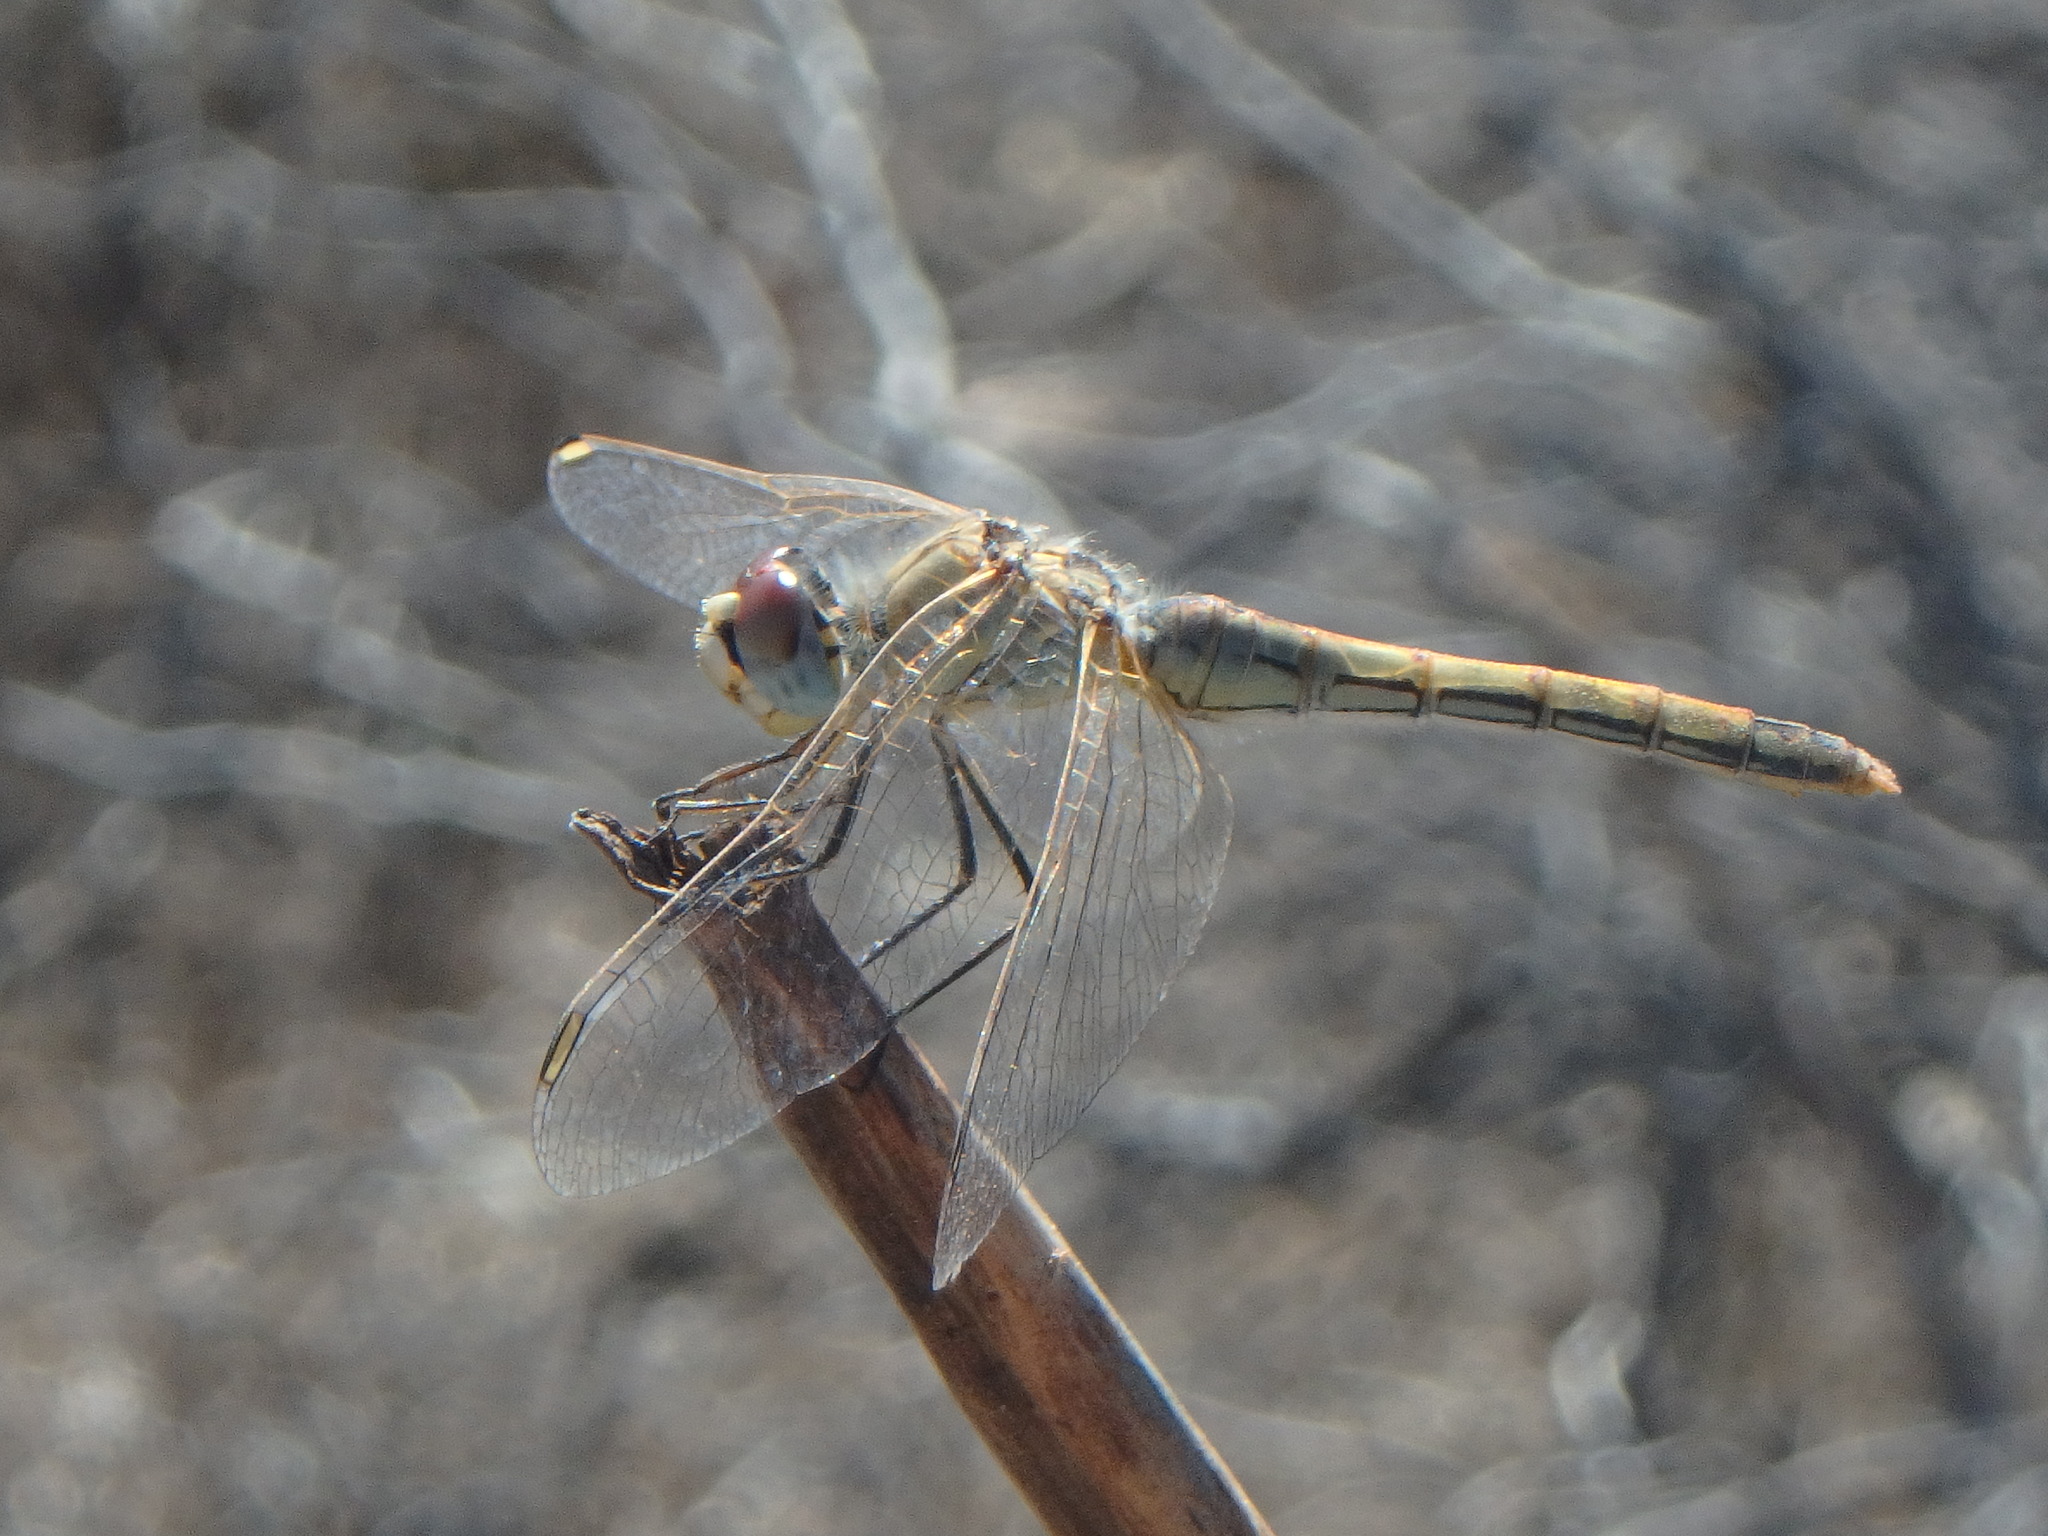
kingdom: Animalia
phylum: Arthropoda
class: Insecta
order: Odonata
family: Libellulidae
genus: Sympetrum
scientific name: Sympetrum fonscolombii
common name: Red-veined darter
